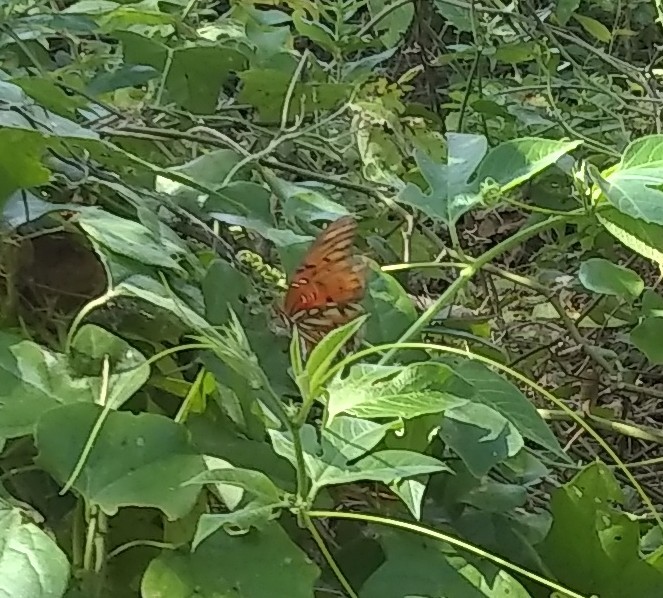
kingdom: Animalia
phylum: Arthropoda
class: Insecta
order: Lepidoptera
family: Nymphalidae
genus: Dione
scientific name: Dione vanillae
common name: Gulf fritillary
